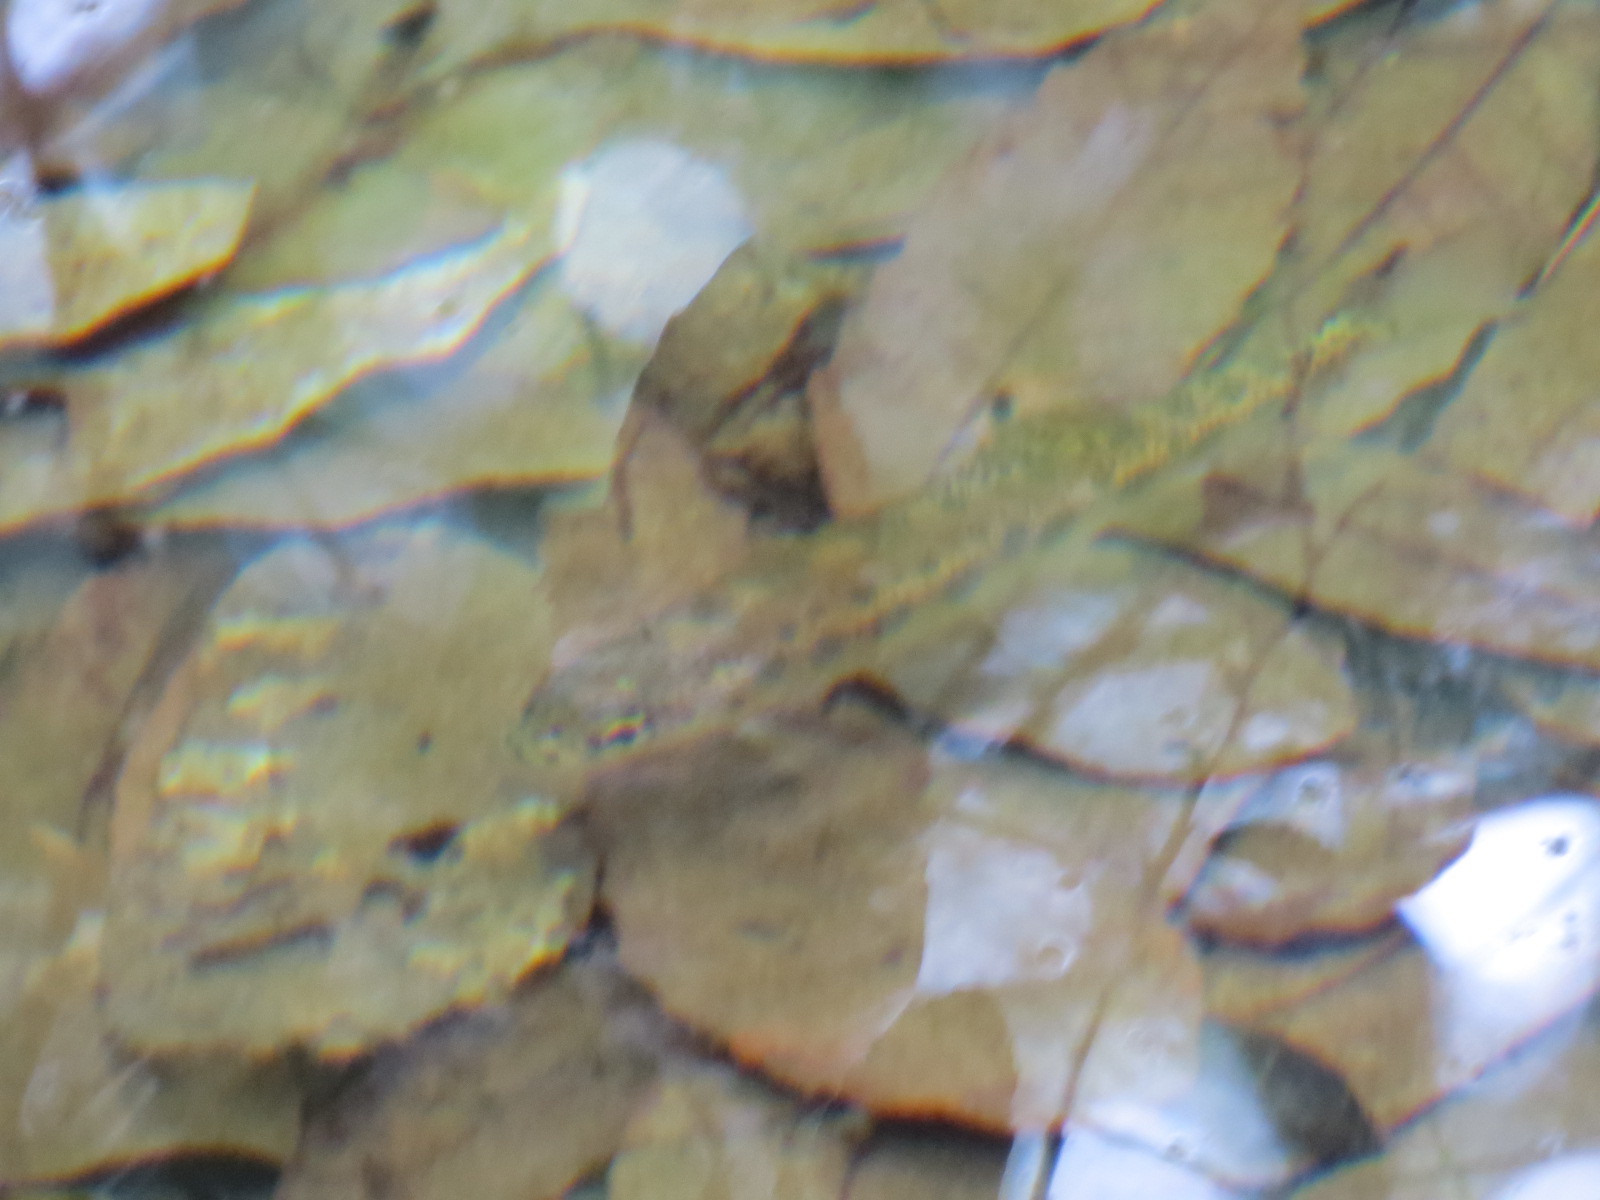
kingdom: Animalia
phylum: Chordata
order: Salmoniformes
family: Salmonidae
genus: Oncorhynchus
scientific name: Oncorhynchus mykiss
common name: Rainbow trout
